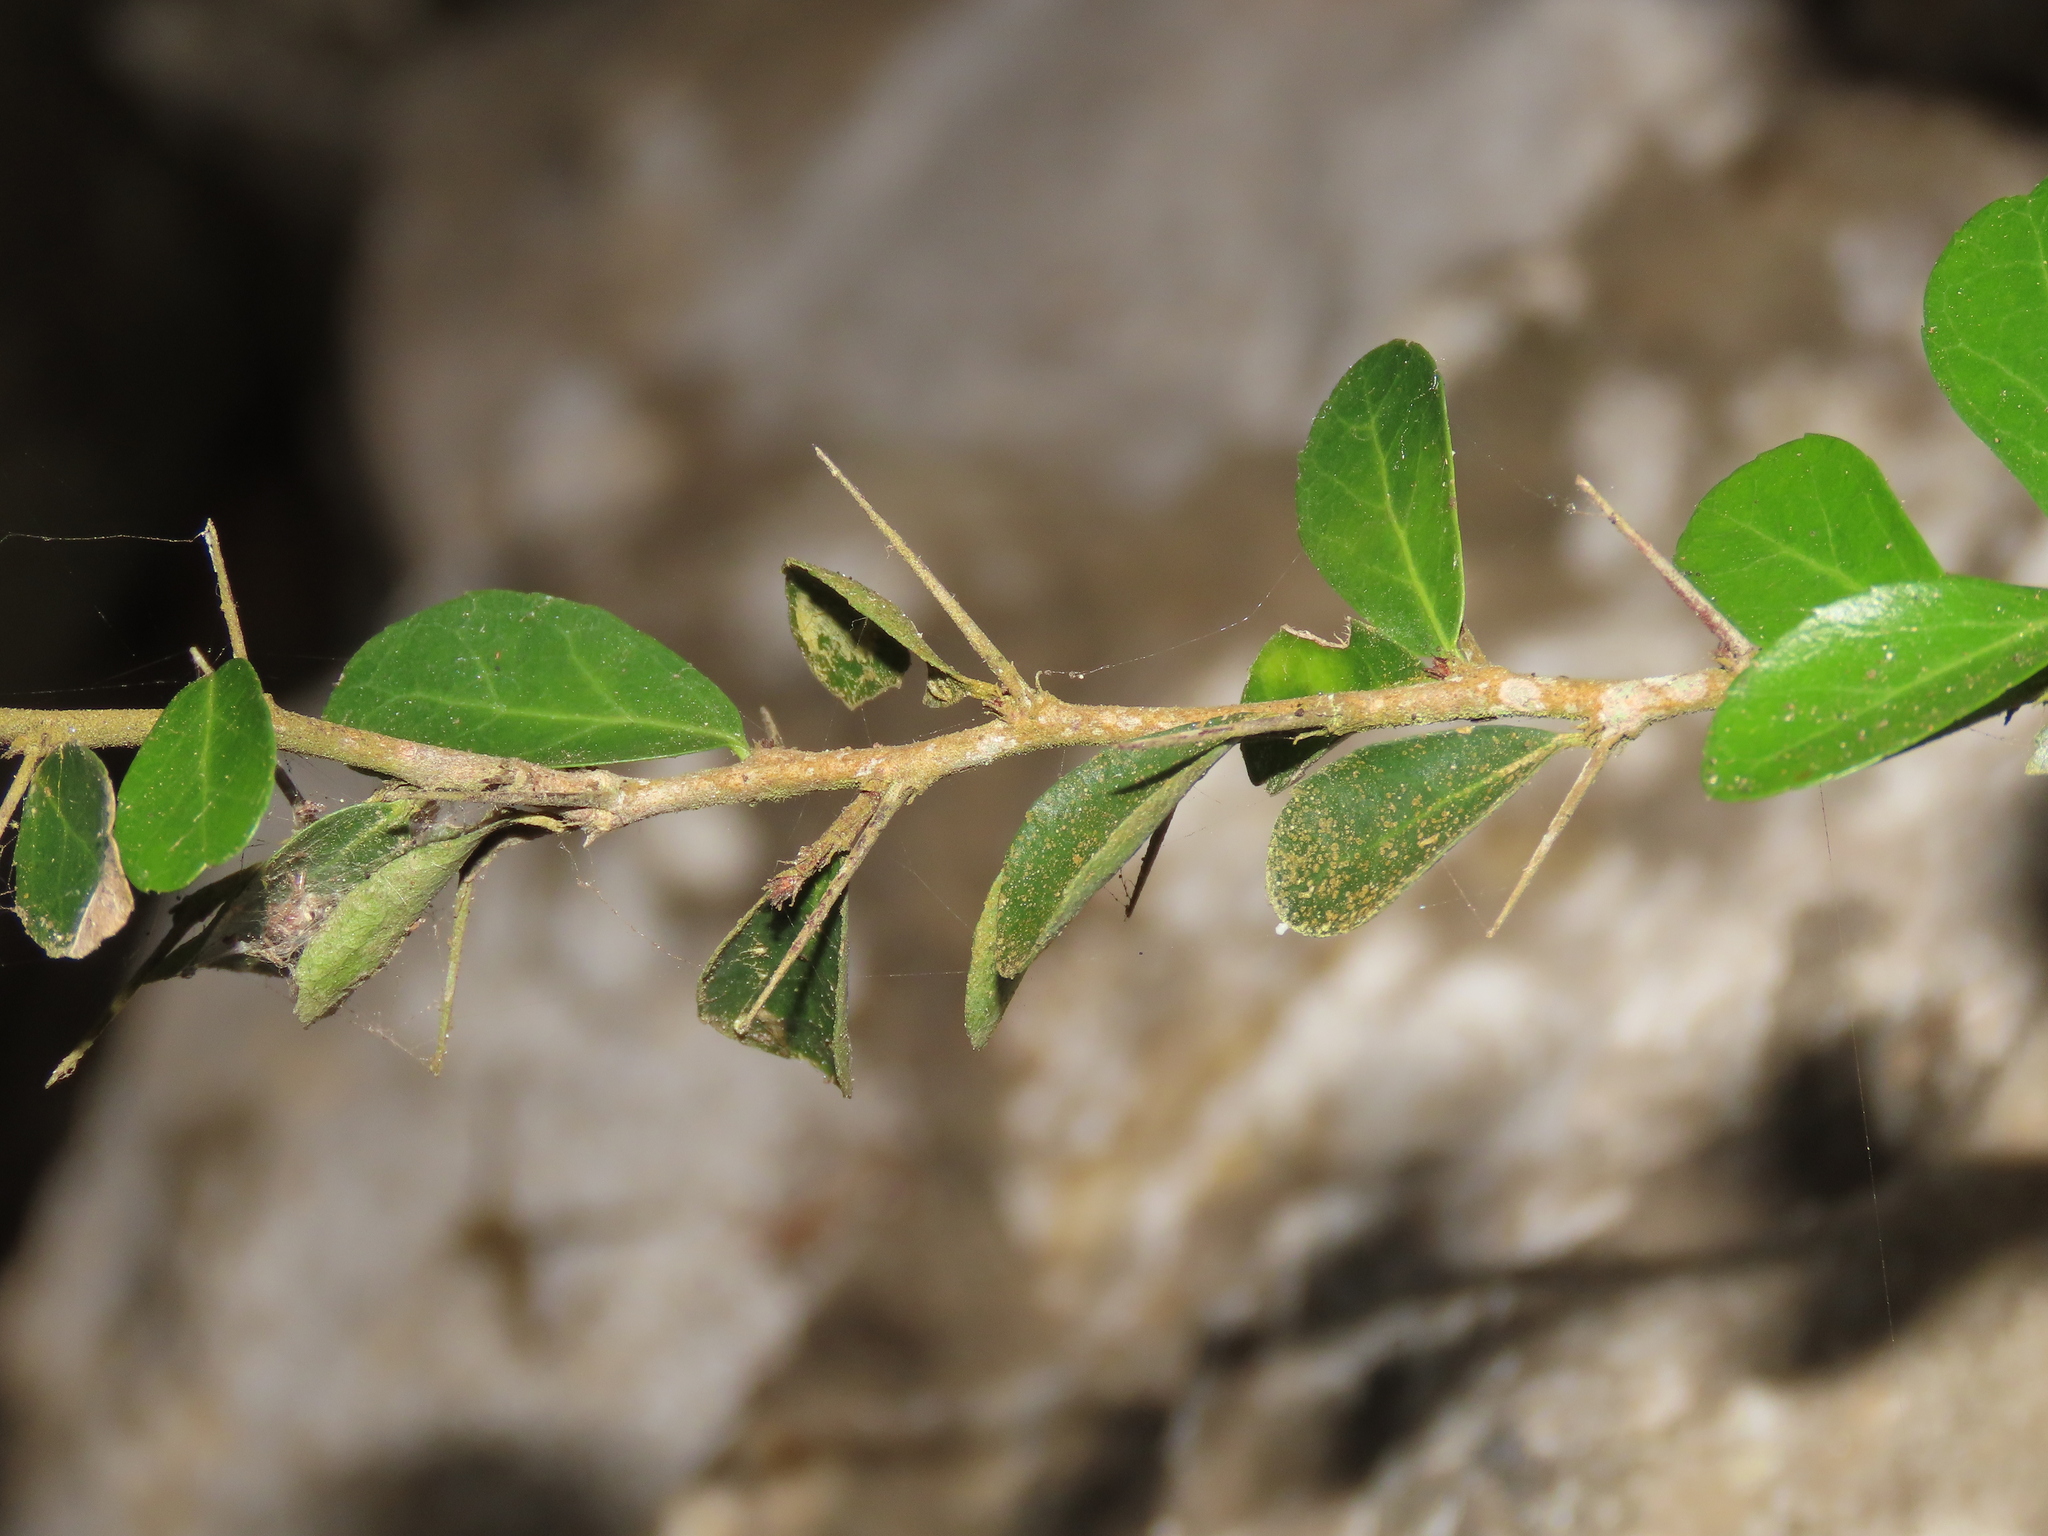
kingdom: Plantae
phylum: Tracheophyta
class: Magnoliopsida
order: Celastrales
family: Celastraceae
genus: Gymnosporia
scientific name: Gymnosporia diversifolia
